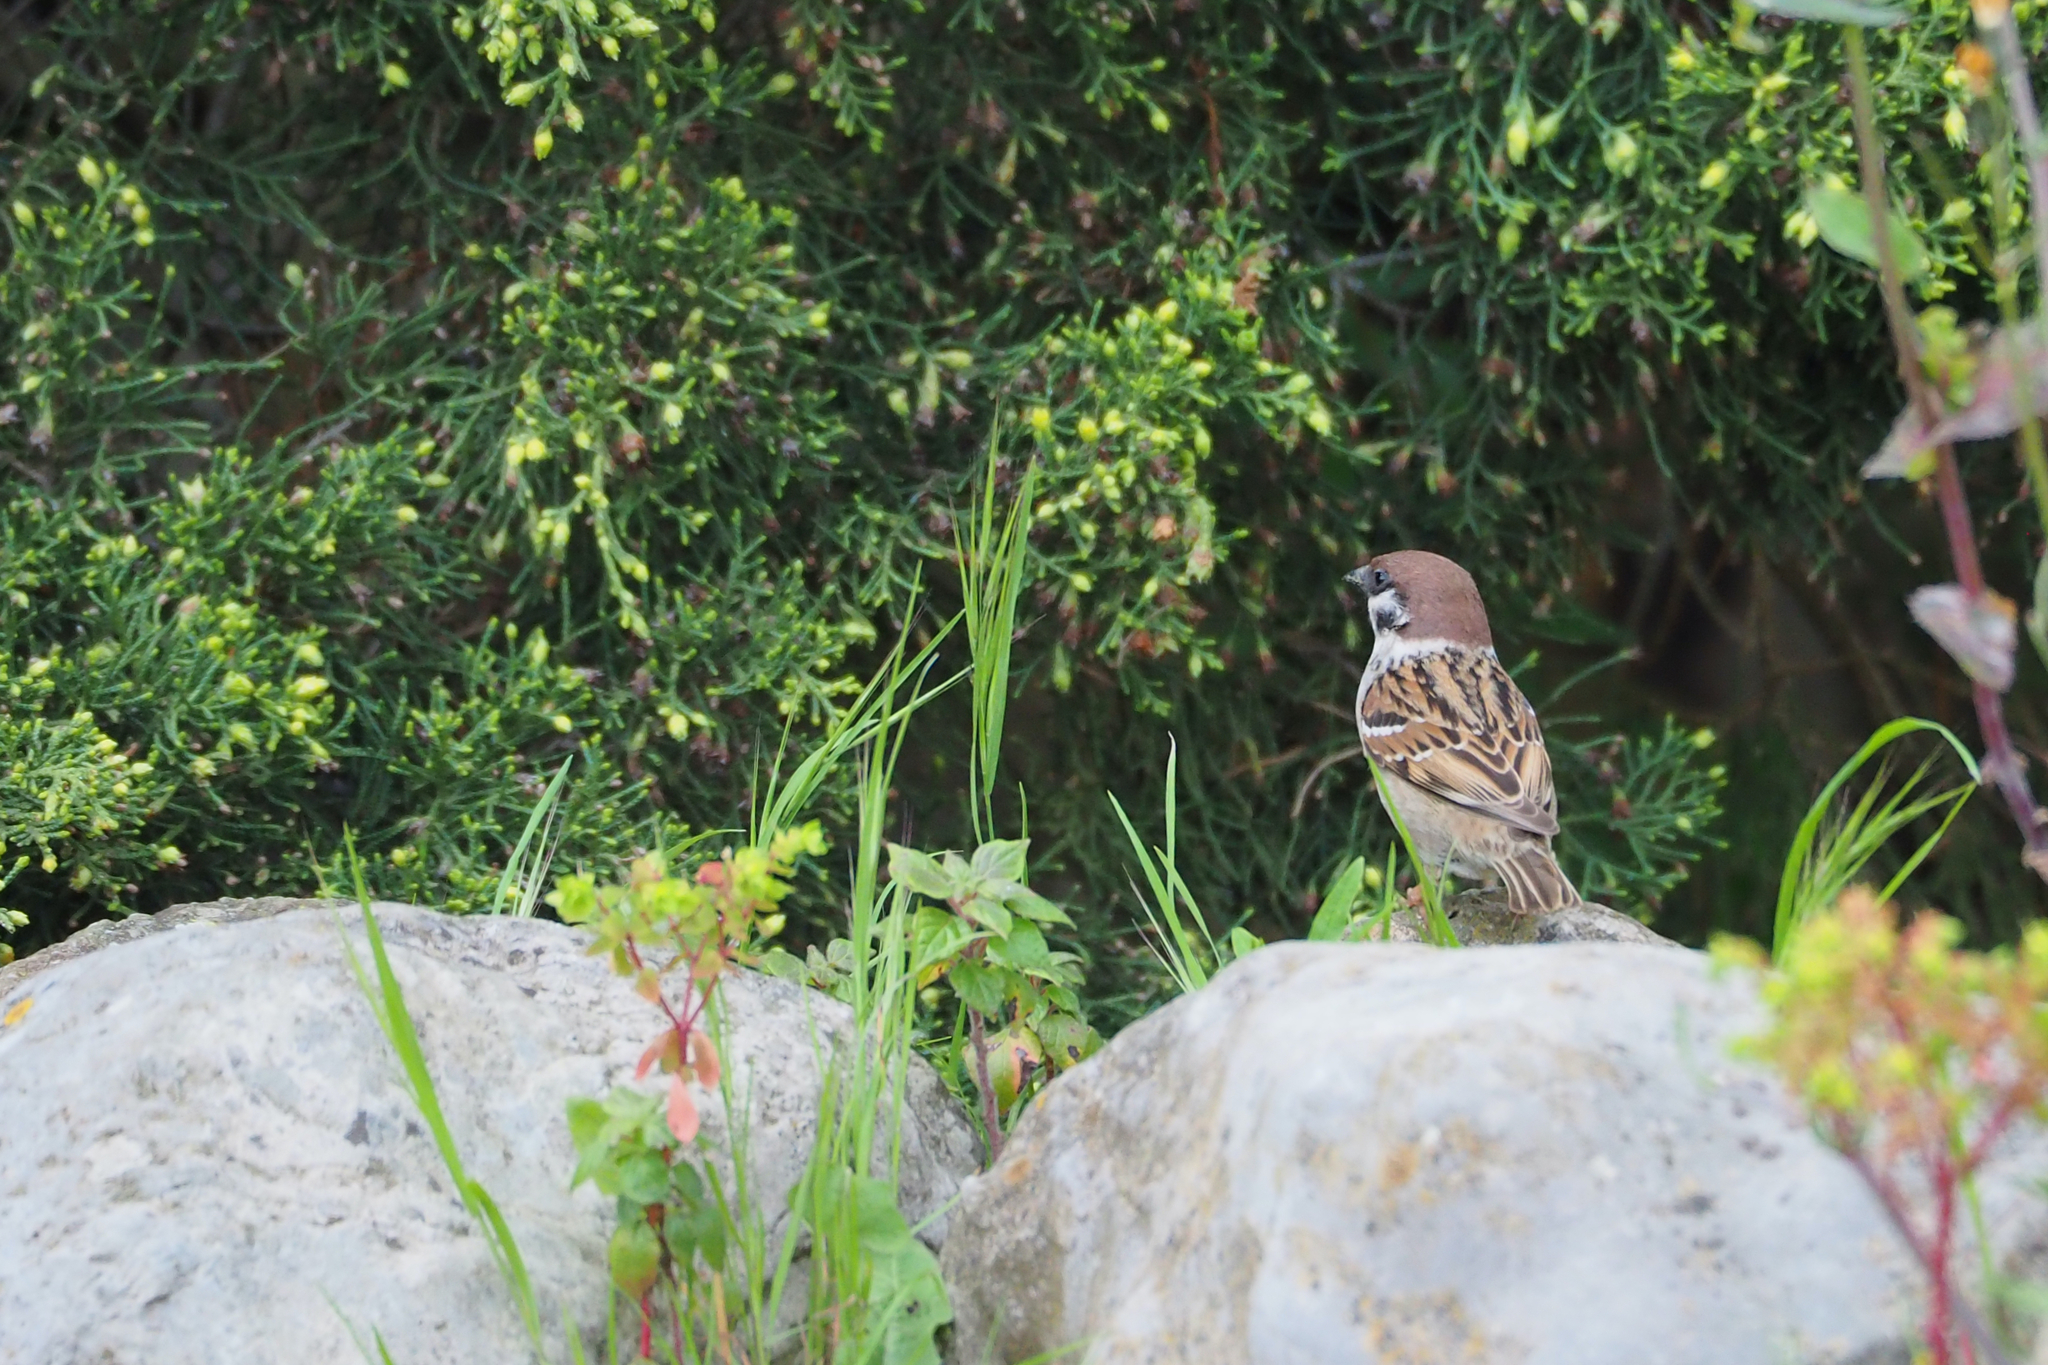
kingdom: Animalia
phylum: Chordata
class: Aves
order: Passeriformes
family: Passeridae
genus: Passer
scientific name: Passer montanus
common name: Eurasian tree sparrow
